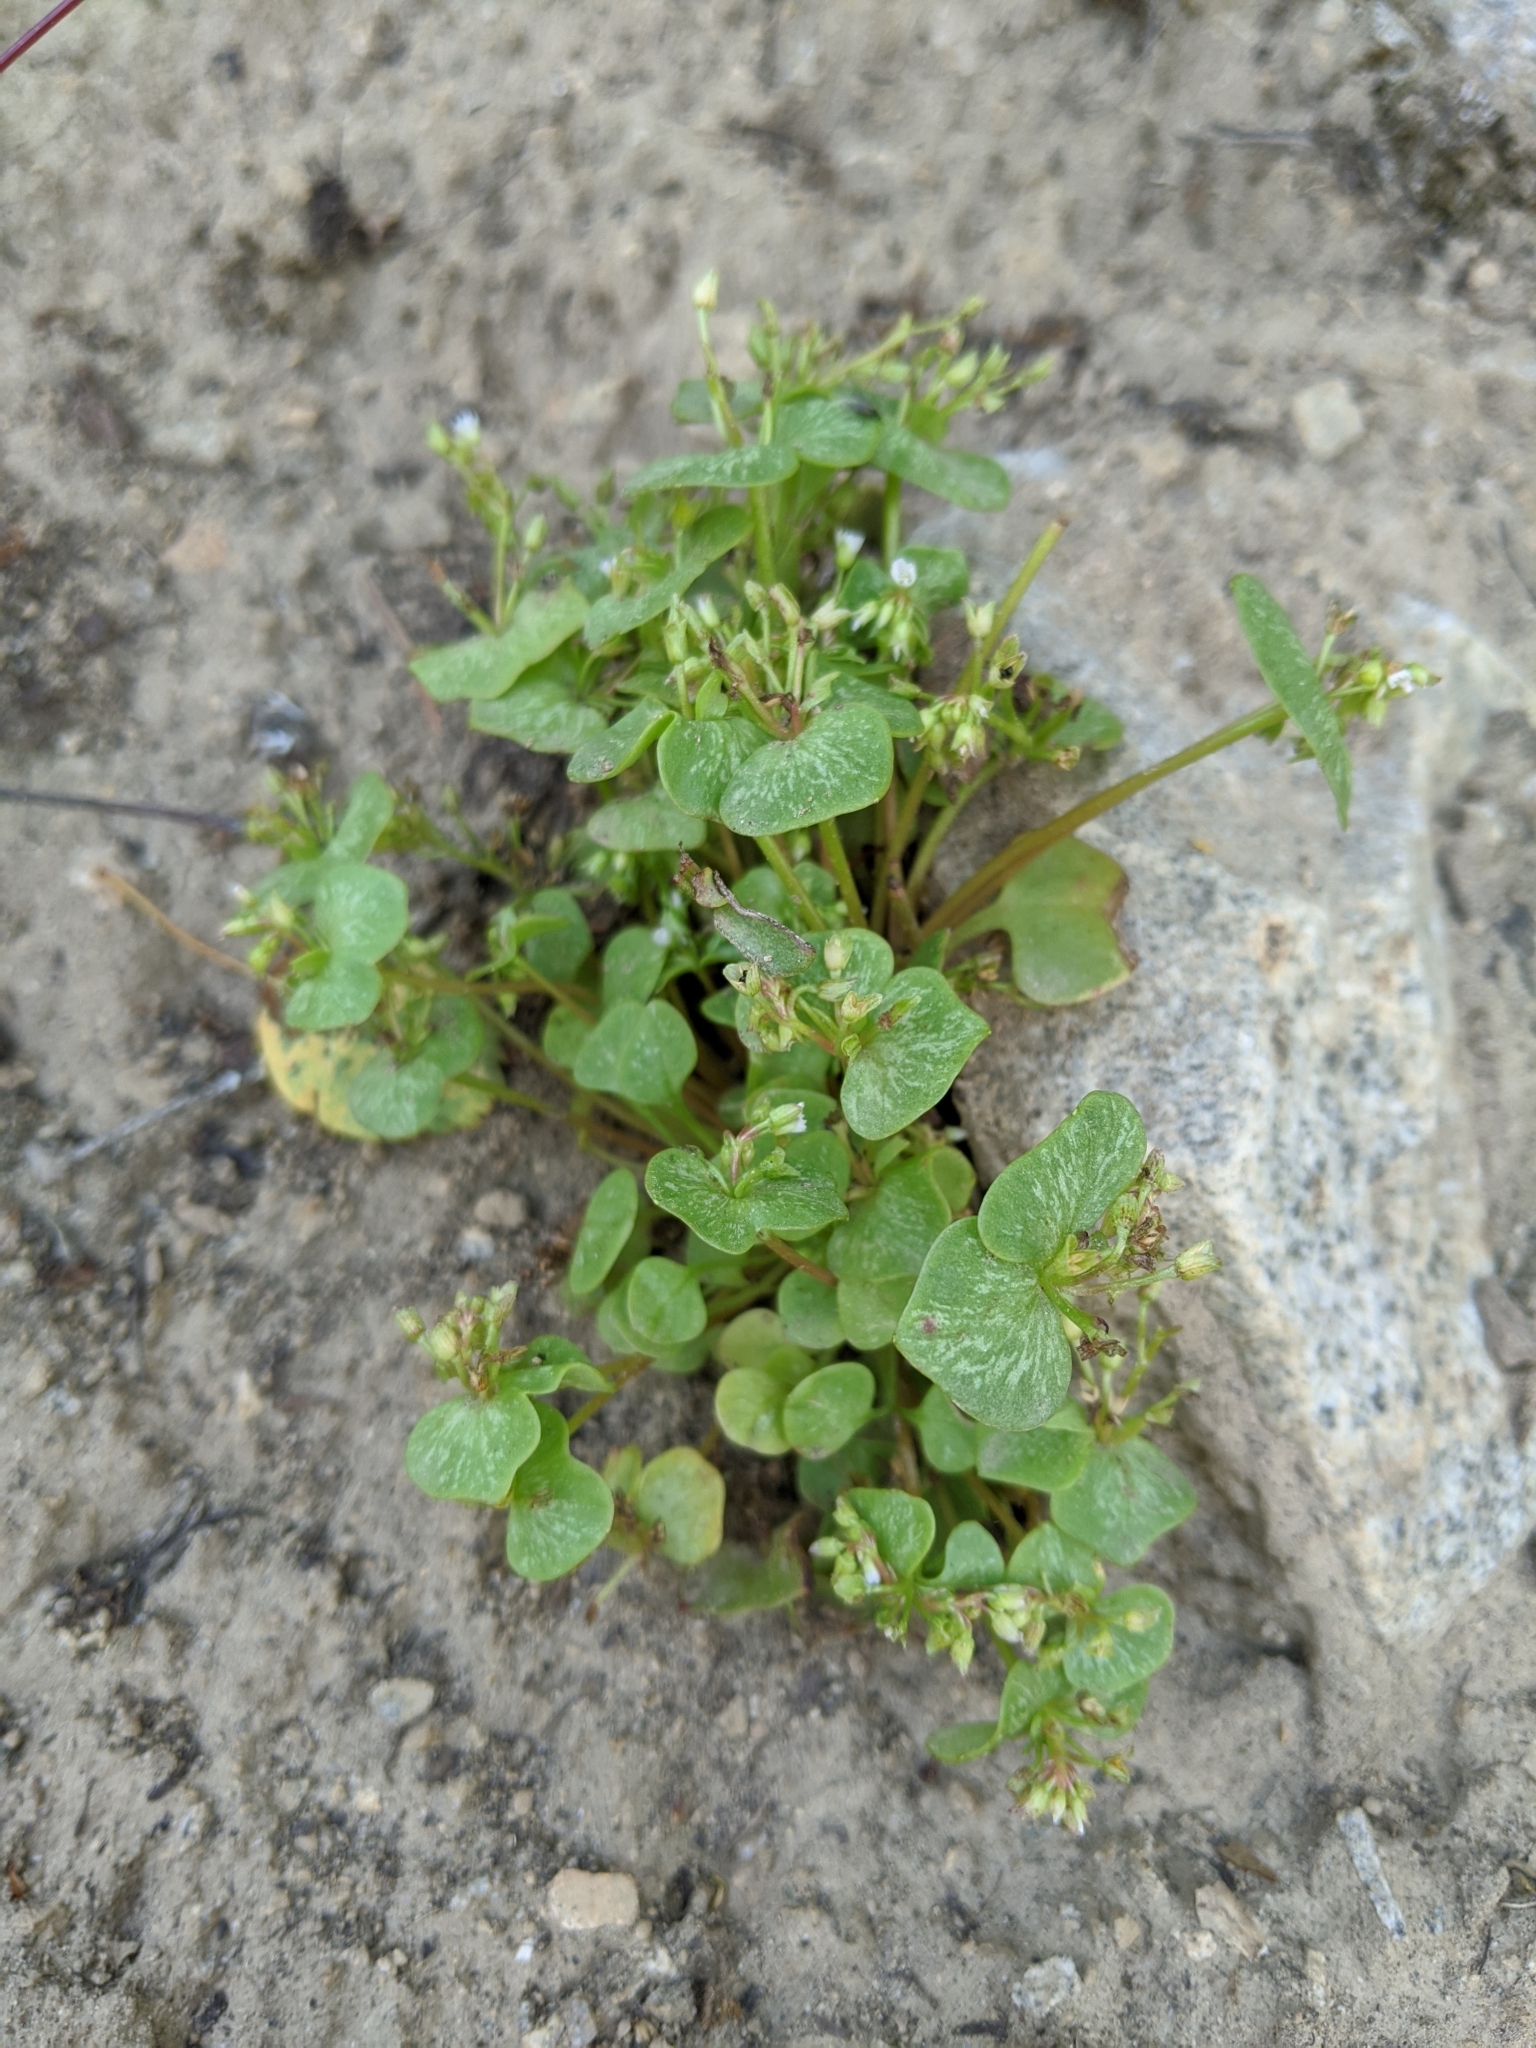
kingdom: Plantae
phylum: Tracheophyta
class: Magnoliopsida
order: Caryophyllales
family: Montiaceae
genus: Claytonia
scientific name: Claytonia rubra
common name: Erubescent miner's-lettuce
